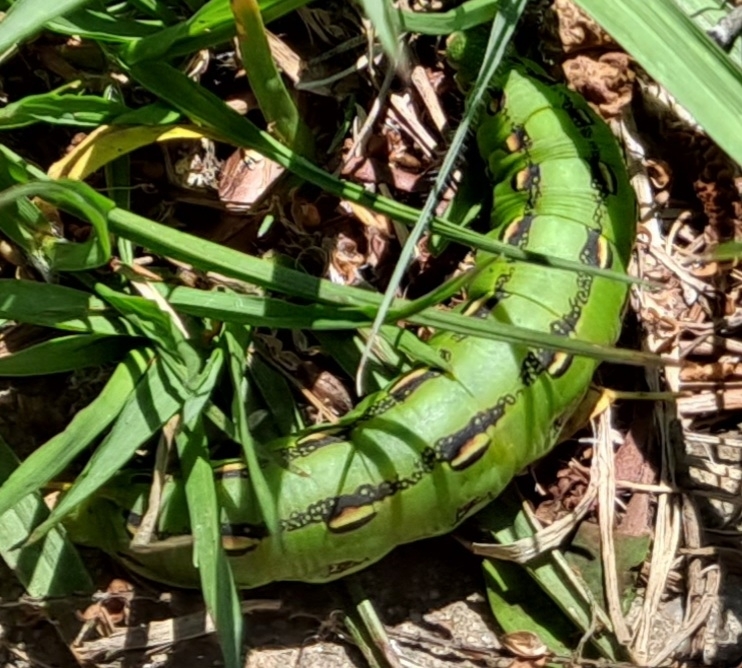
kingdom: Animalia
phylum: Arthropoda
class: Insecta
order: Lepidoptera
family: Sphingidae
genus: Hyles
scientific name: Hyles lineata
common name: White-lined sphinx
